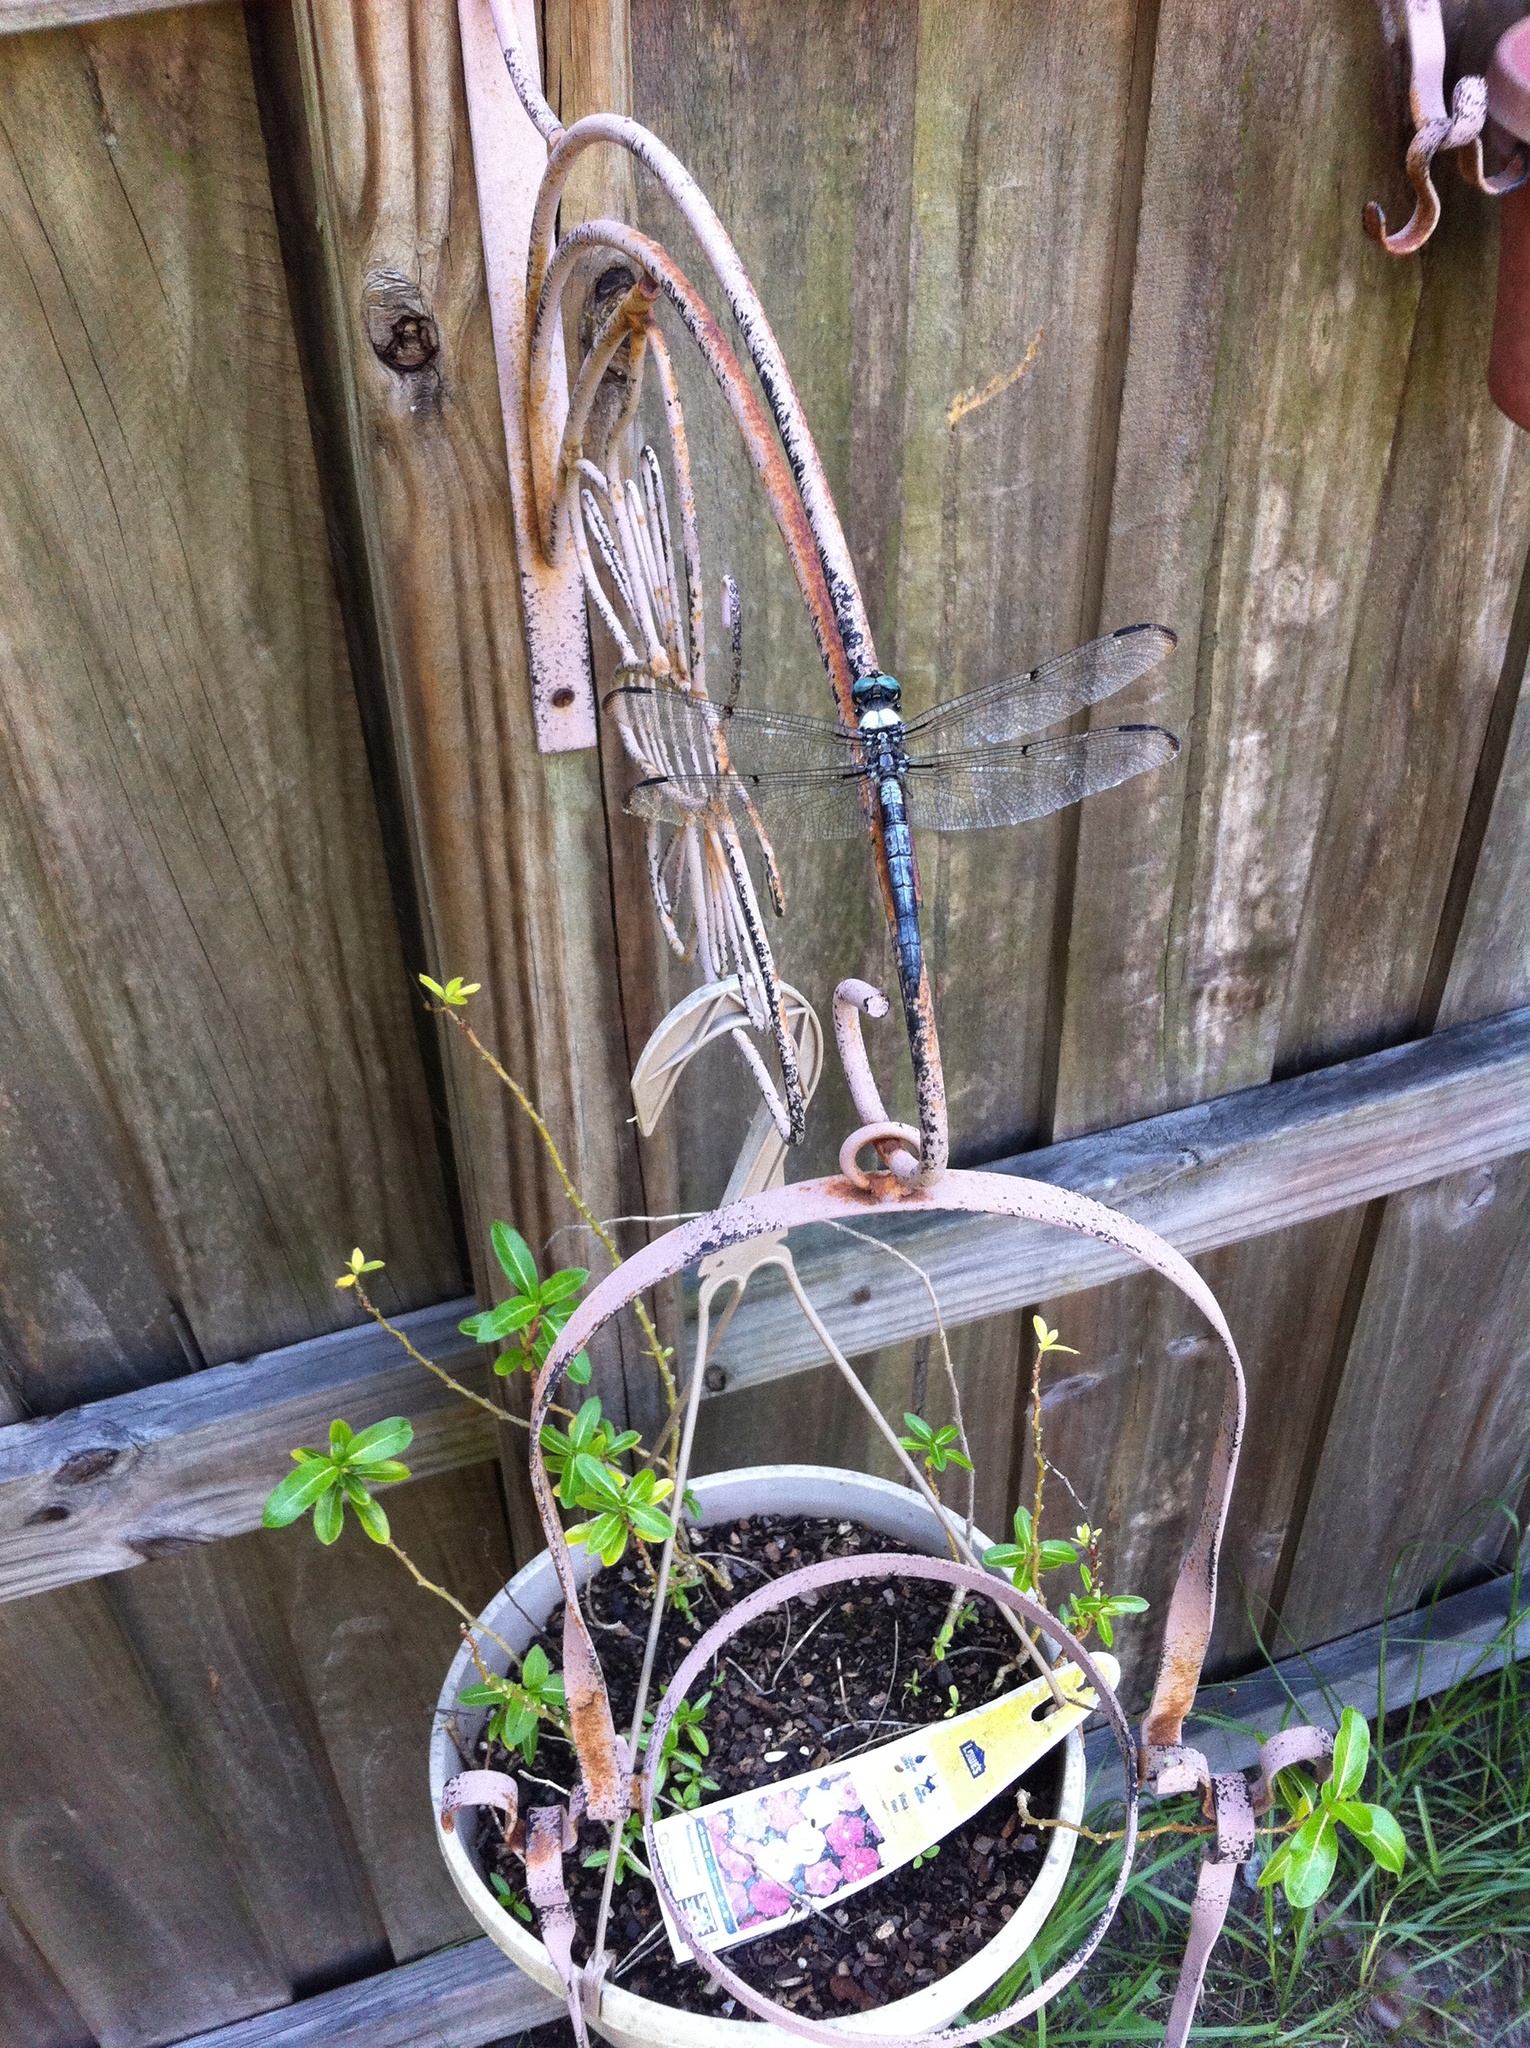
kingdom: Animalia
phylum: Arthropoda
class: Insecta
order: Odonata
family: Libellulidae
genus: Libellula
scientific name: Libellula vibrans
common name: Great blue skimmer
